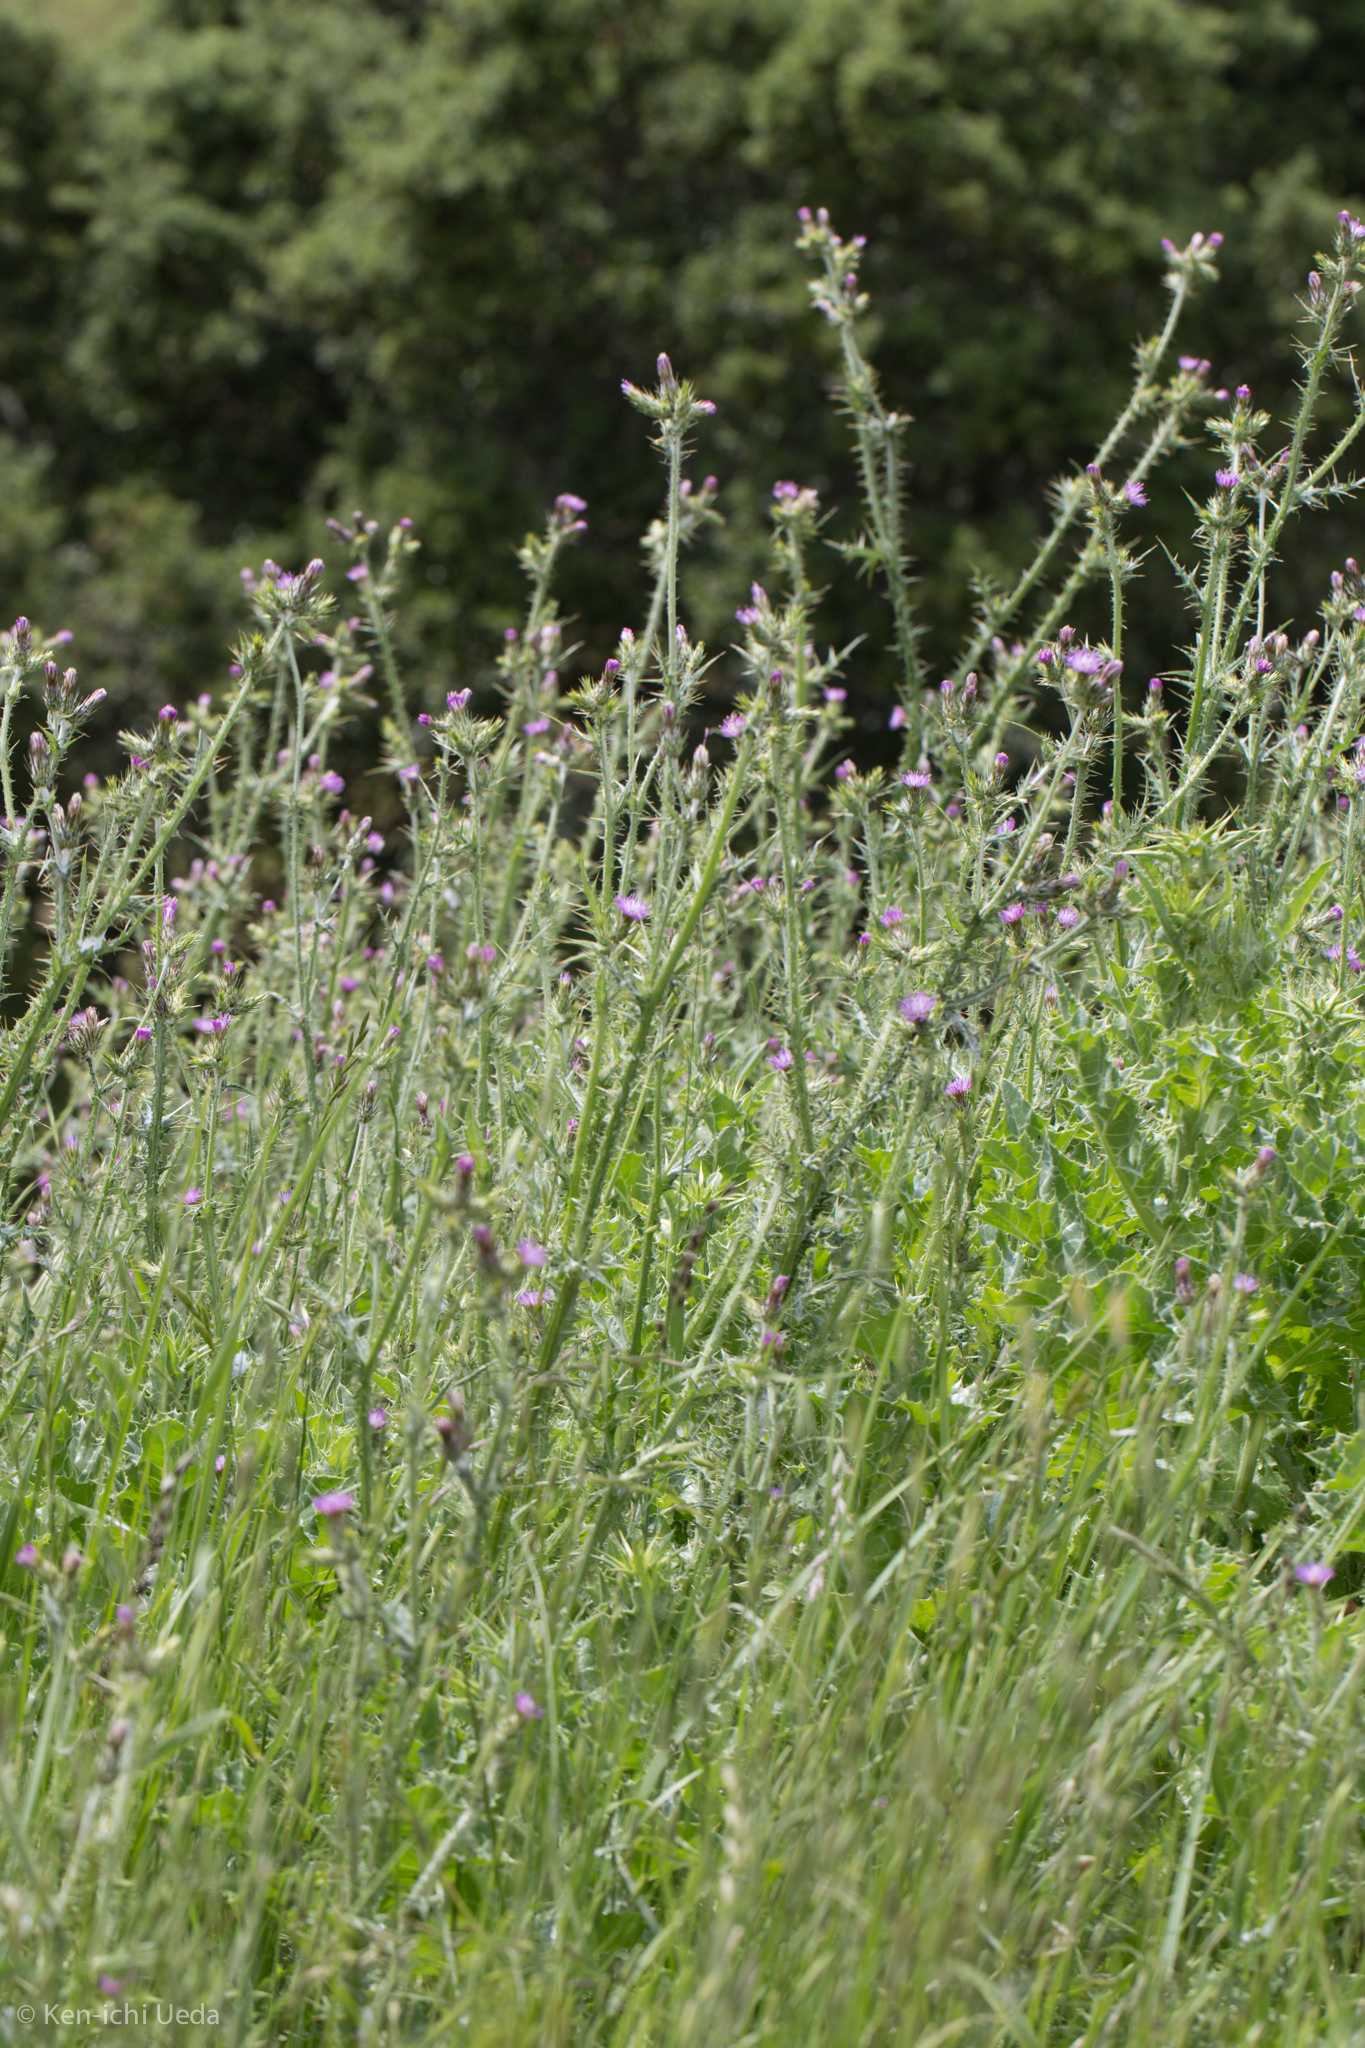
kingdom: Plantae
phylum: Tracheophyta
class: Magnoliopsida
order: Asterales
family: Asteraceae
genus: Carduus
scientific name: Carduus pycnocephalus
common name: Plymouth thistle
